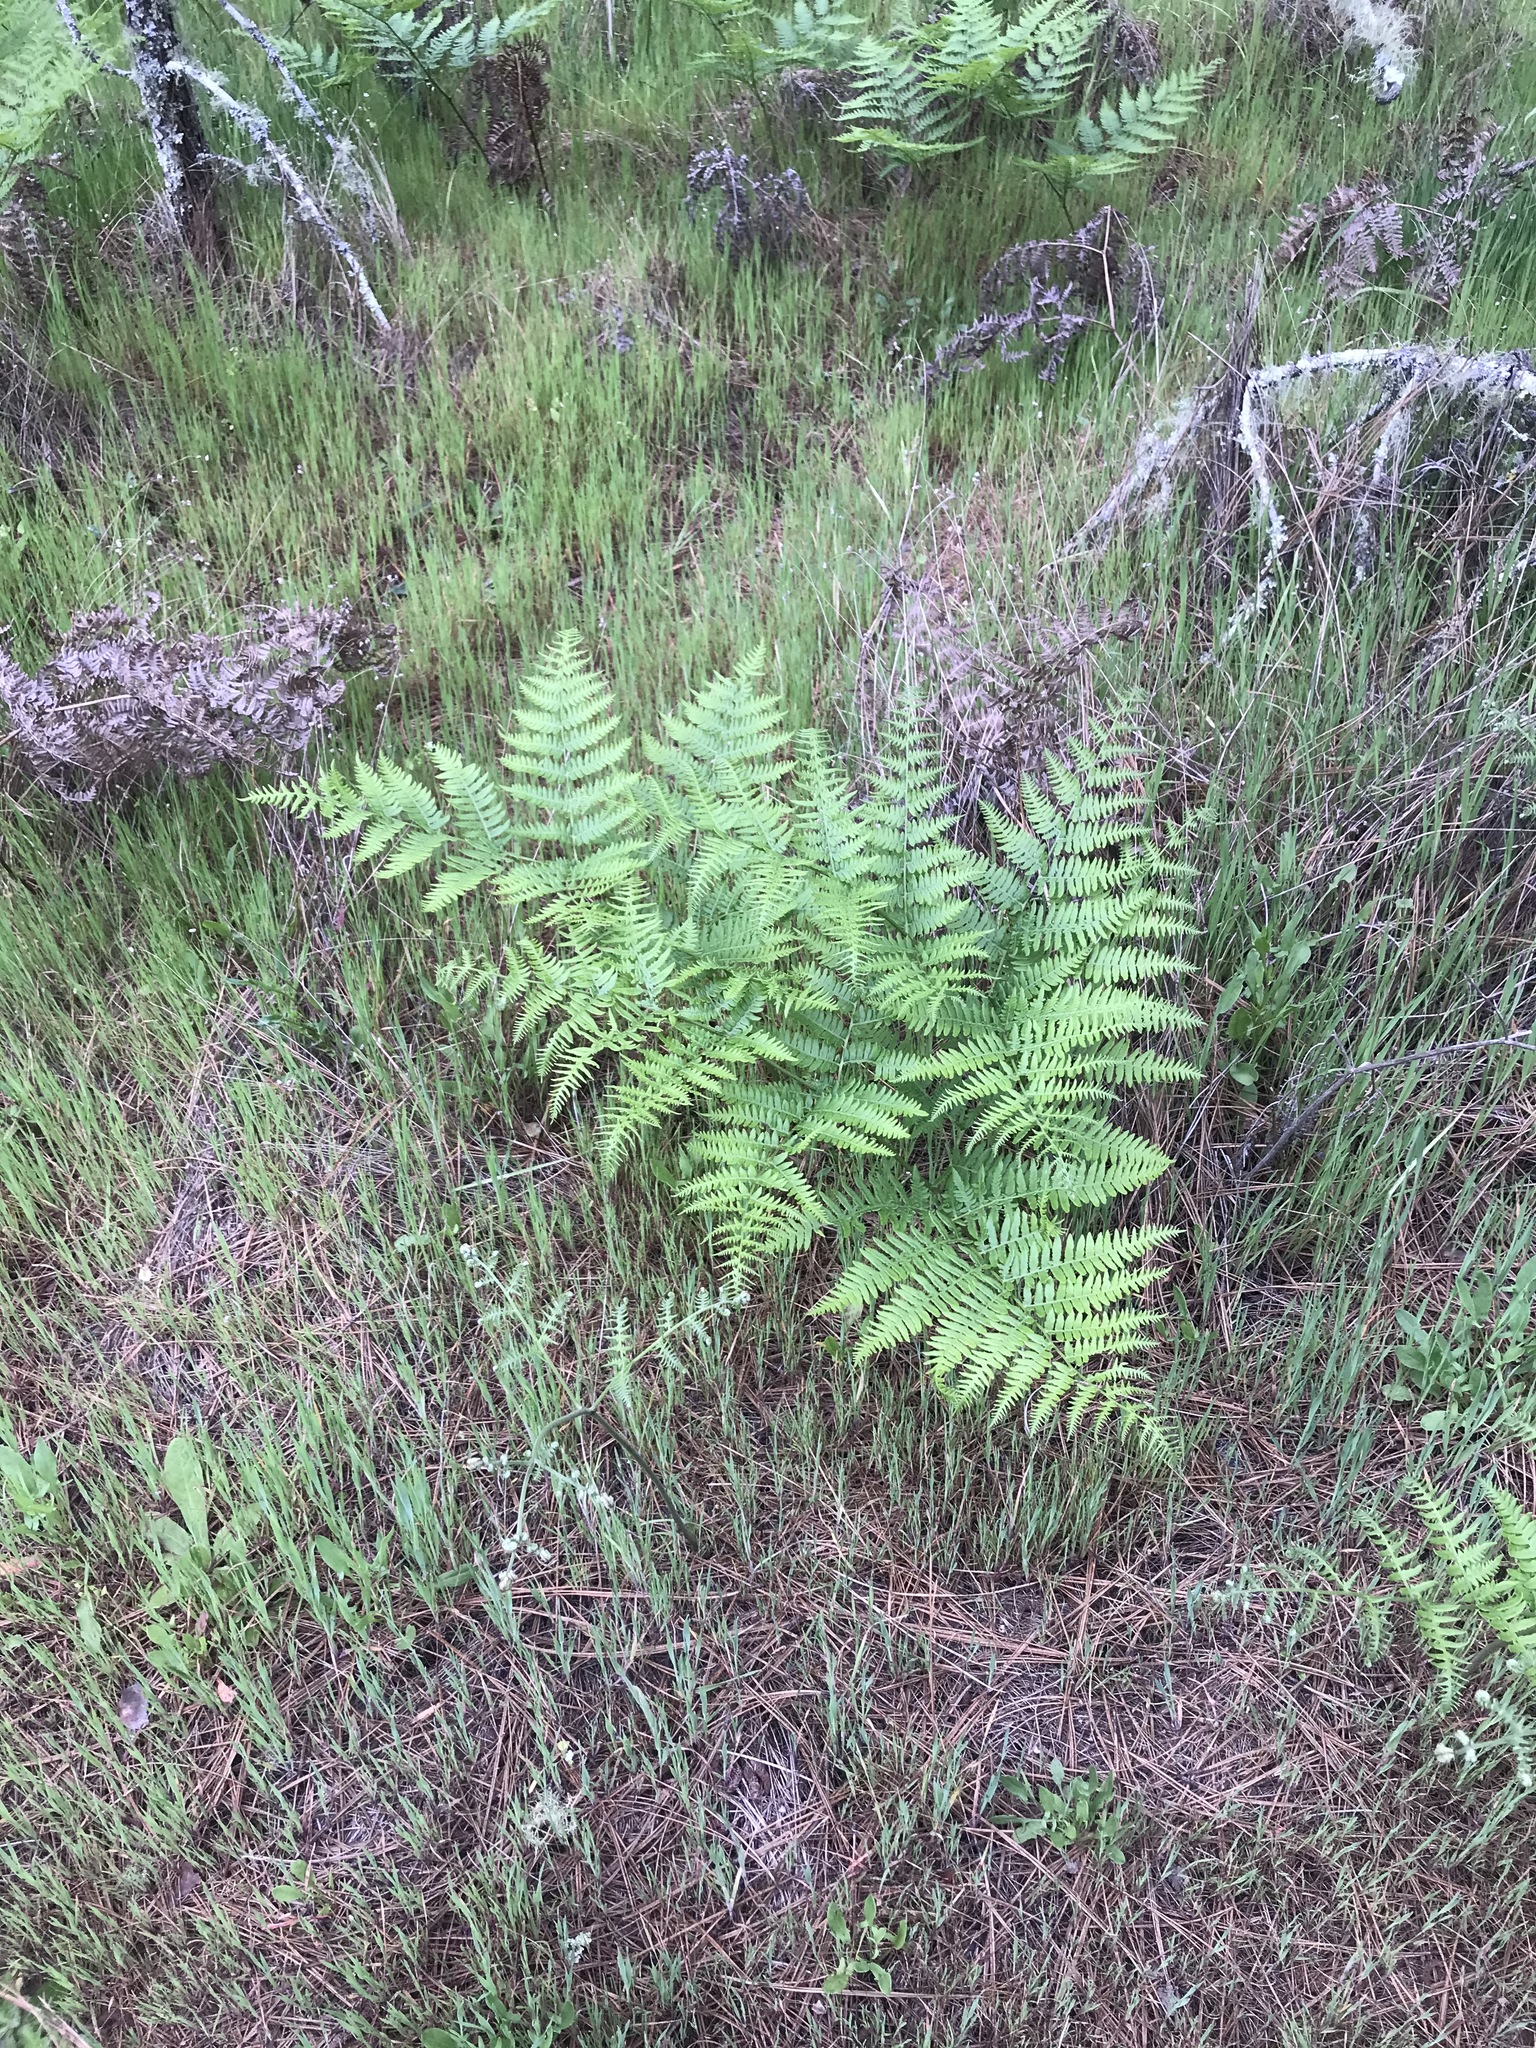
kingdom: Plantae
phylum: Tracheophyta
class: Polypodiopsida
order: Polypodiales
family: Dennstaedtiaceae
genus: Pteridium
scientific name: Pteridium aquilinum
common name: Bracken
